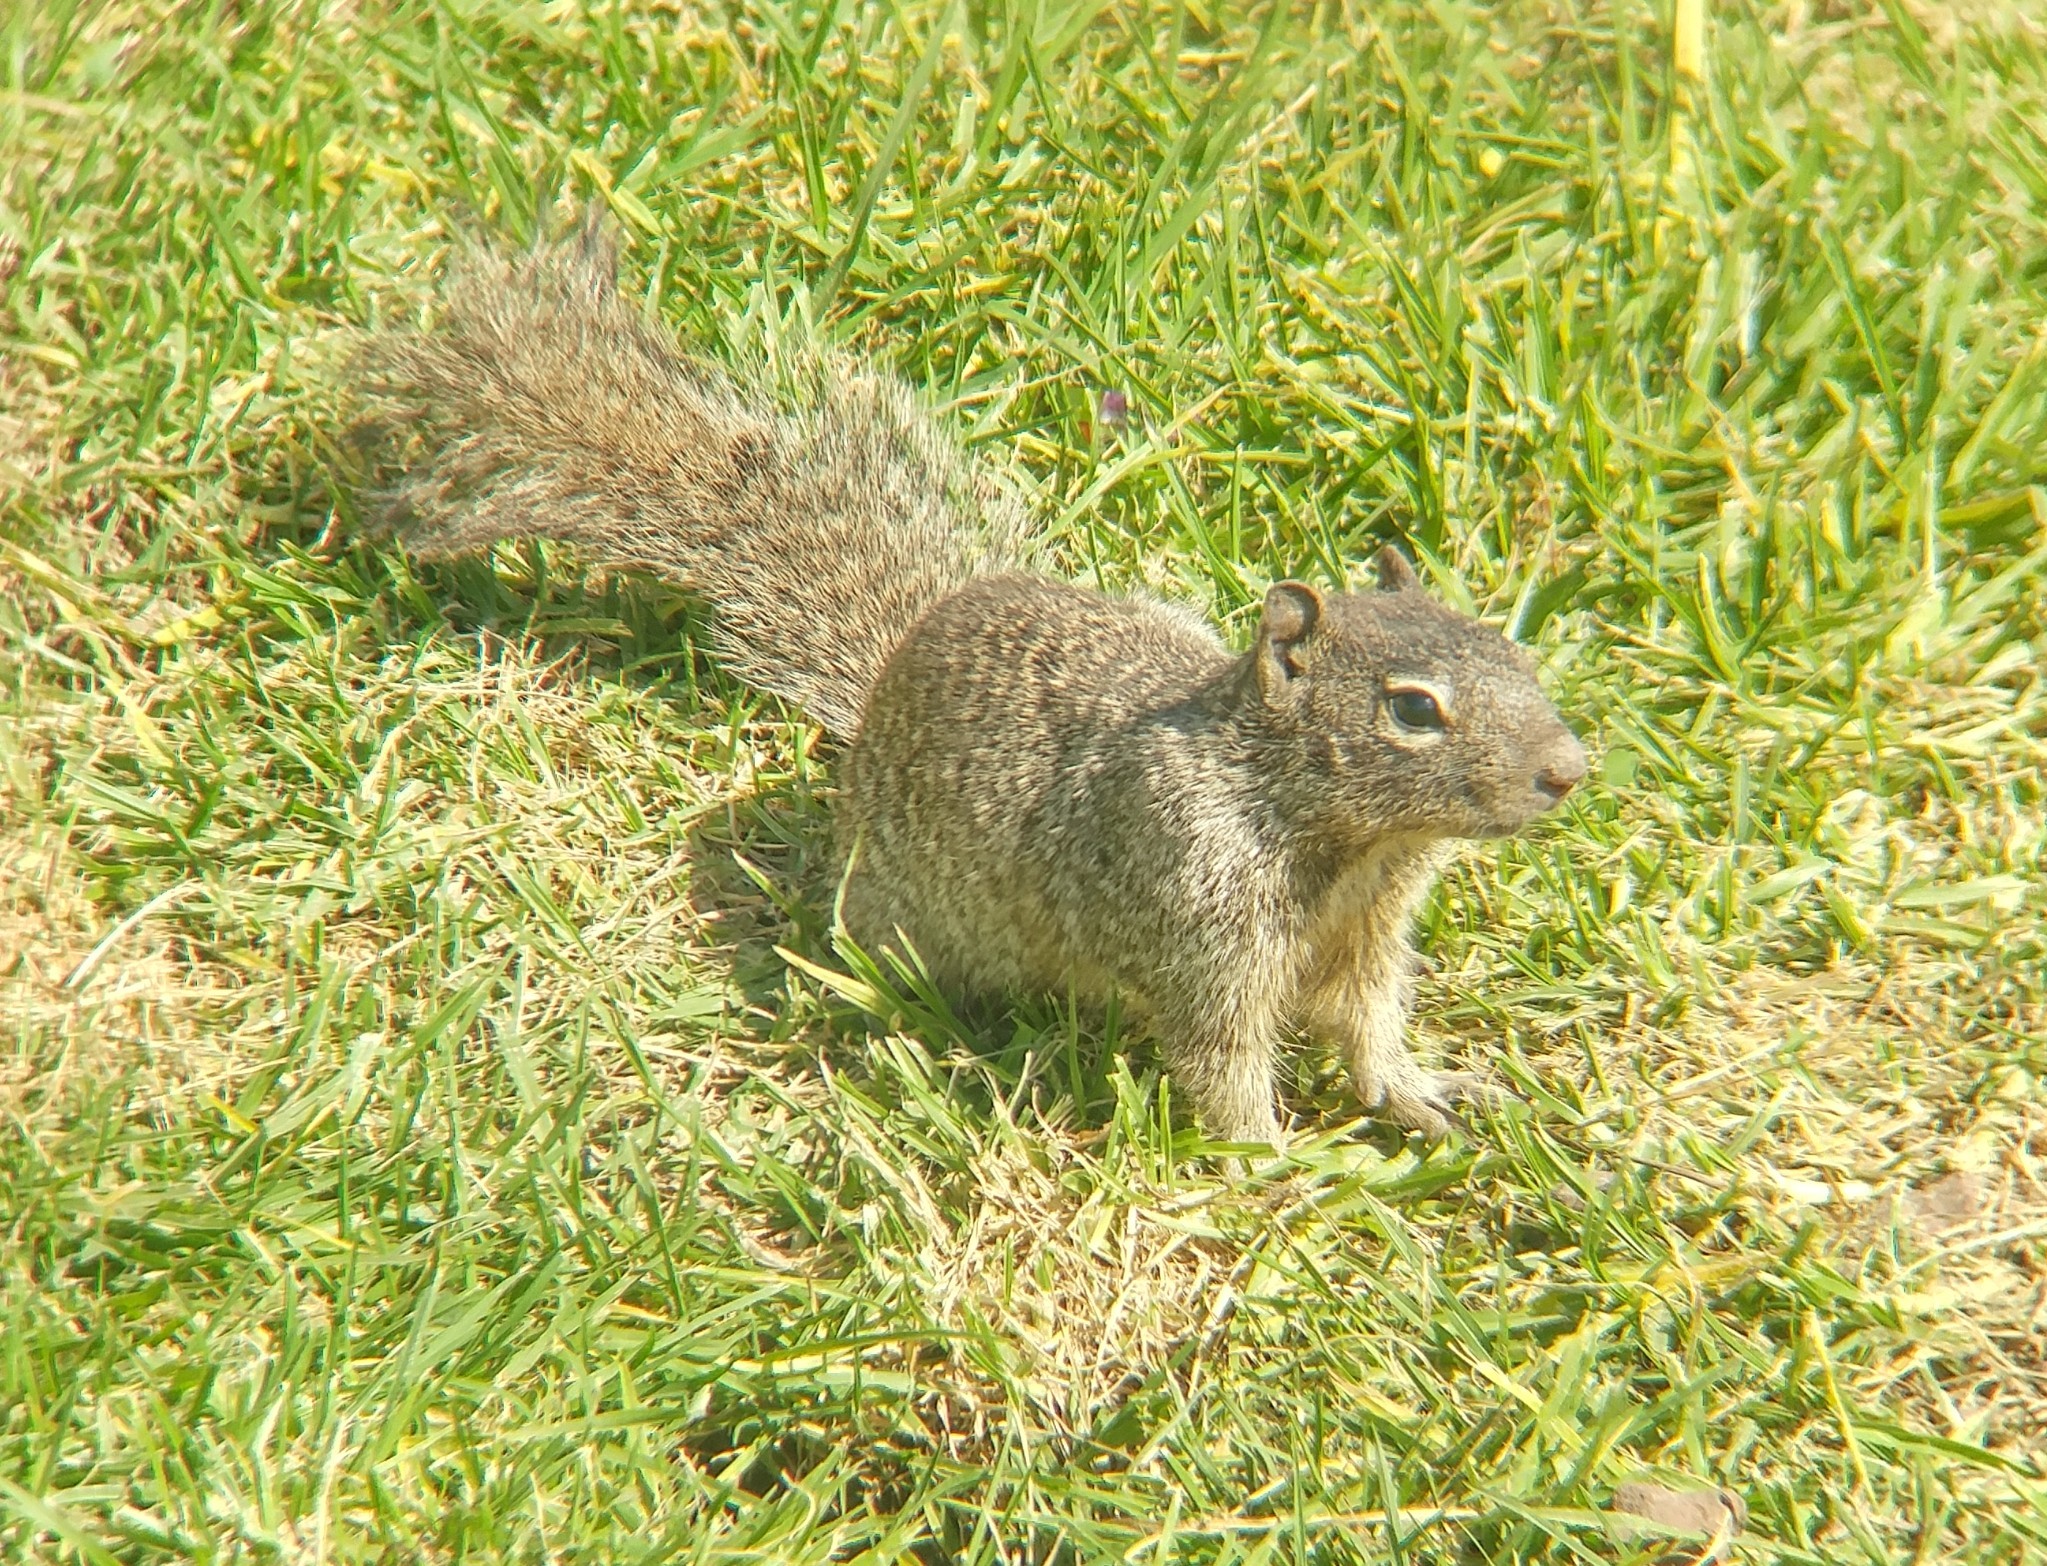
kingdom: Animalia
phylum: Chordata
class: Mammalia
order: Rodentia
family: Sciuridae
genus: Otospermophilus
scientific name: Otospermophilus variegatus
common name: Rock squirrel
